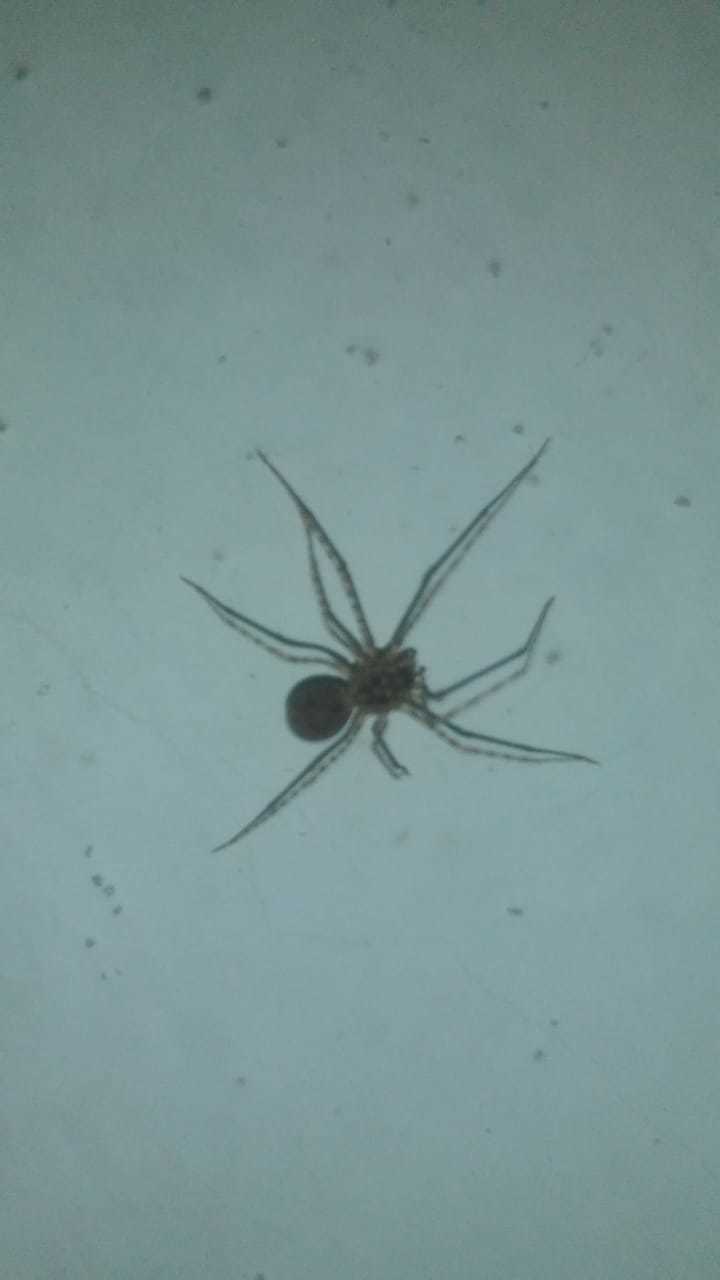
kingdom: Animalia
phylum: Arthropoda
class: Arachnida
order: Araneae
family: Scytodidae
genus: Scytodes
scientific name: Scytodes globula
